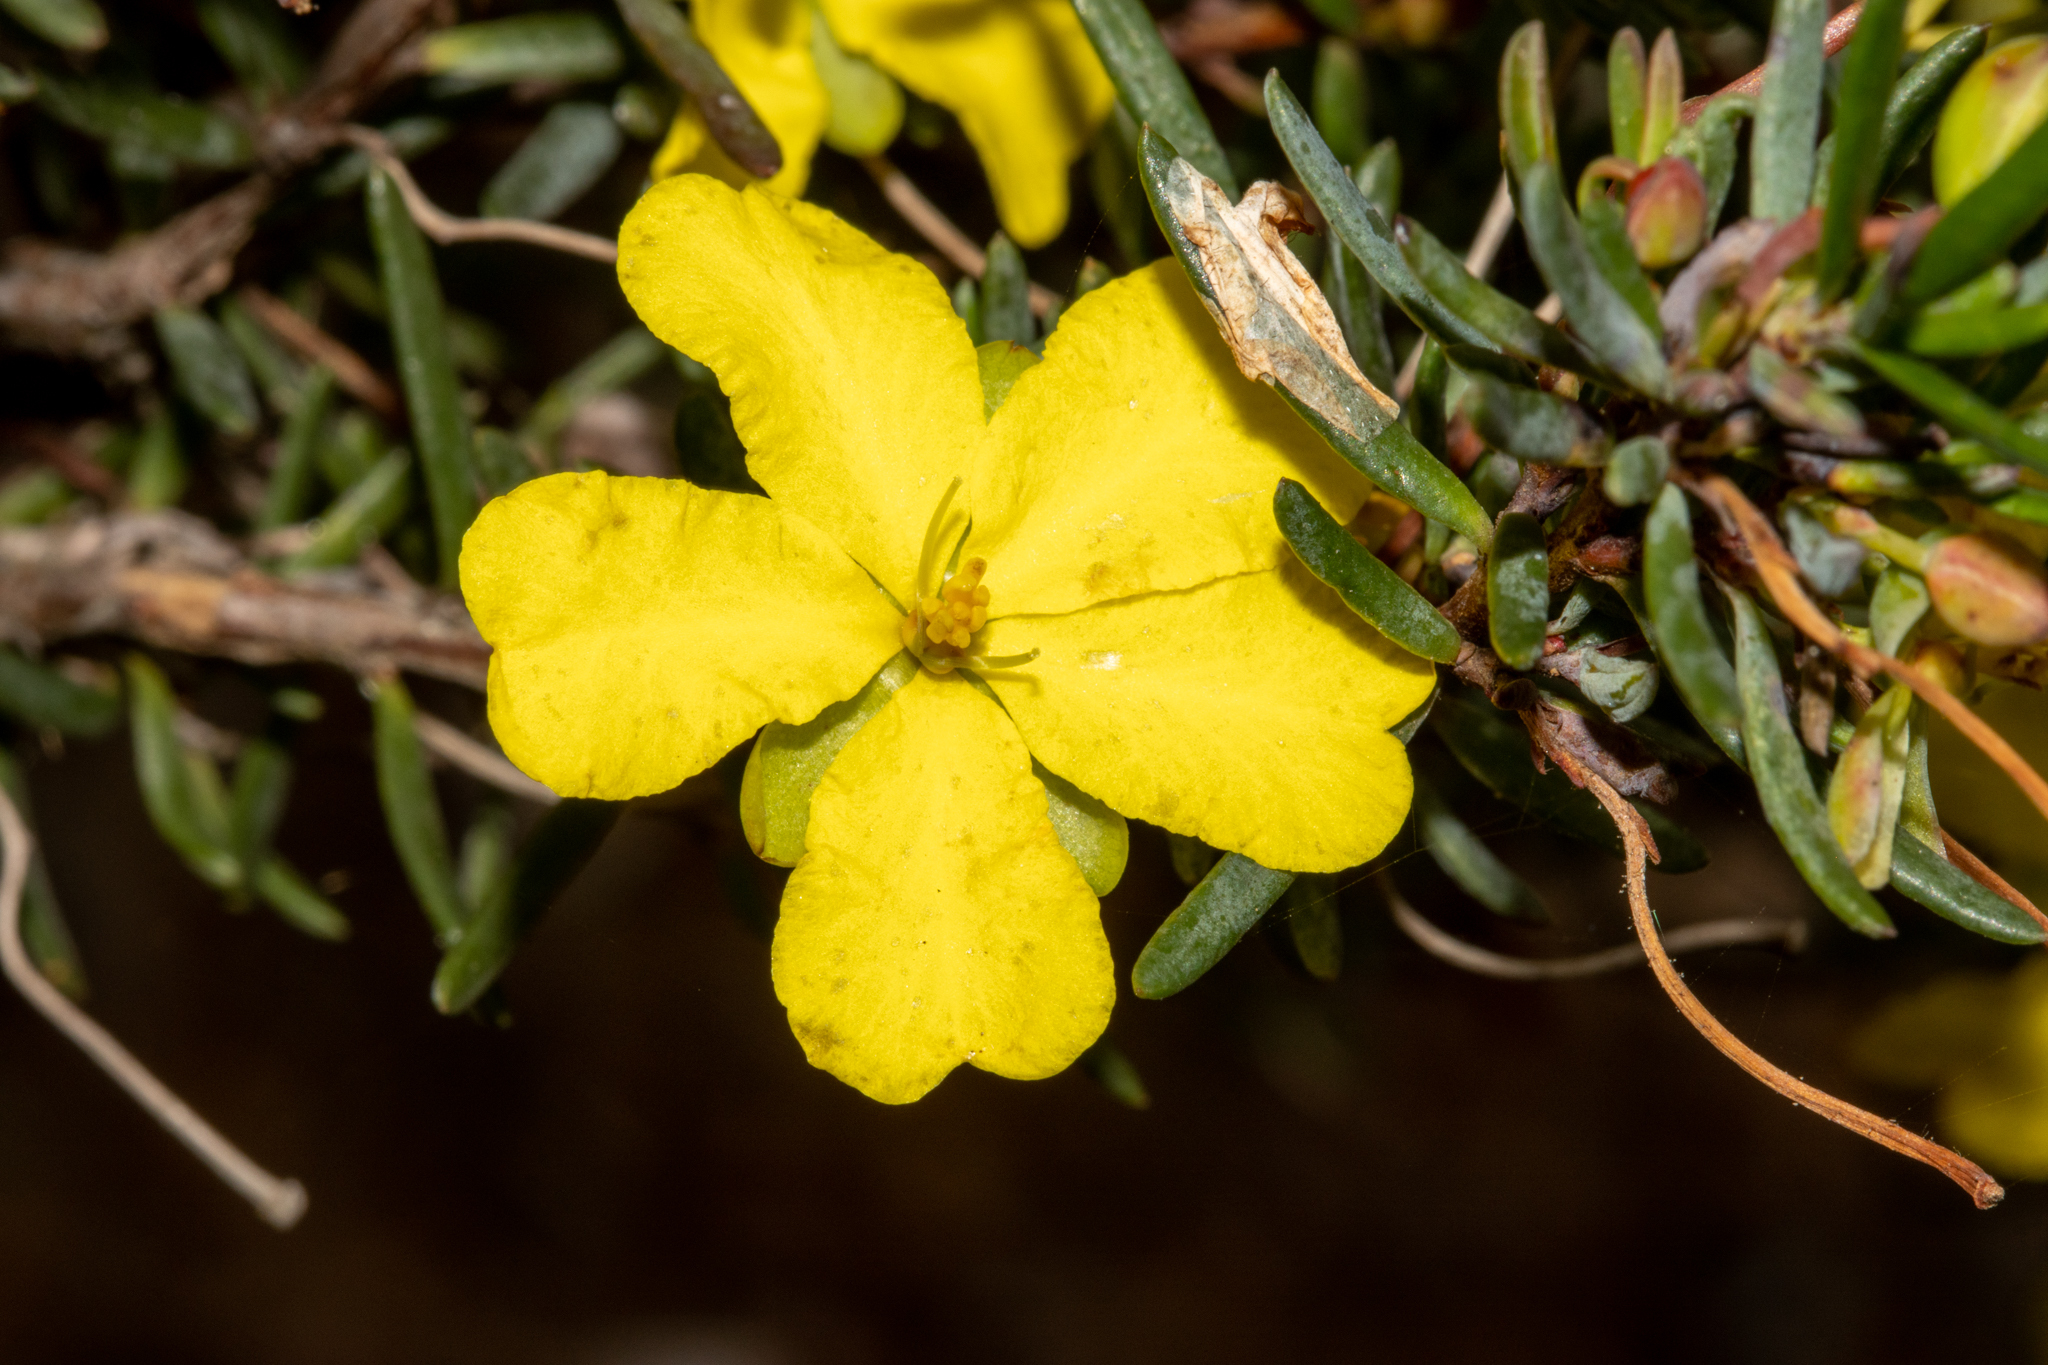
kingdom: Plantae
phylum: Tracheophyta
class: Magnoliopsida
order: Dilleniales
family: Dilleniaceae
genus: Hibbertia
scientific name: Hibbertia psilocarpa
